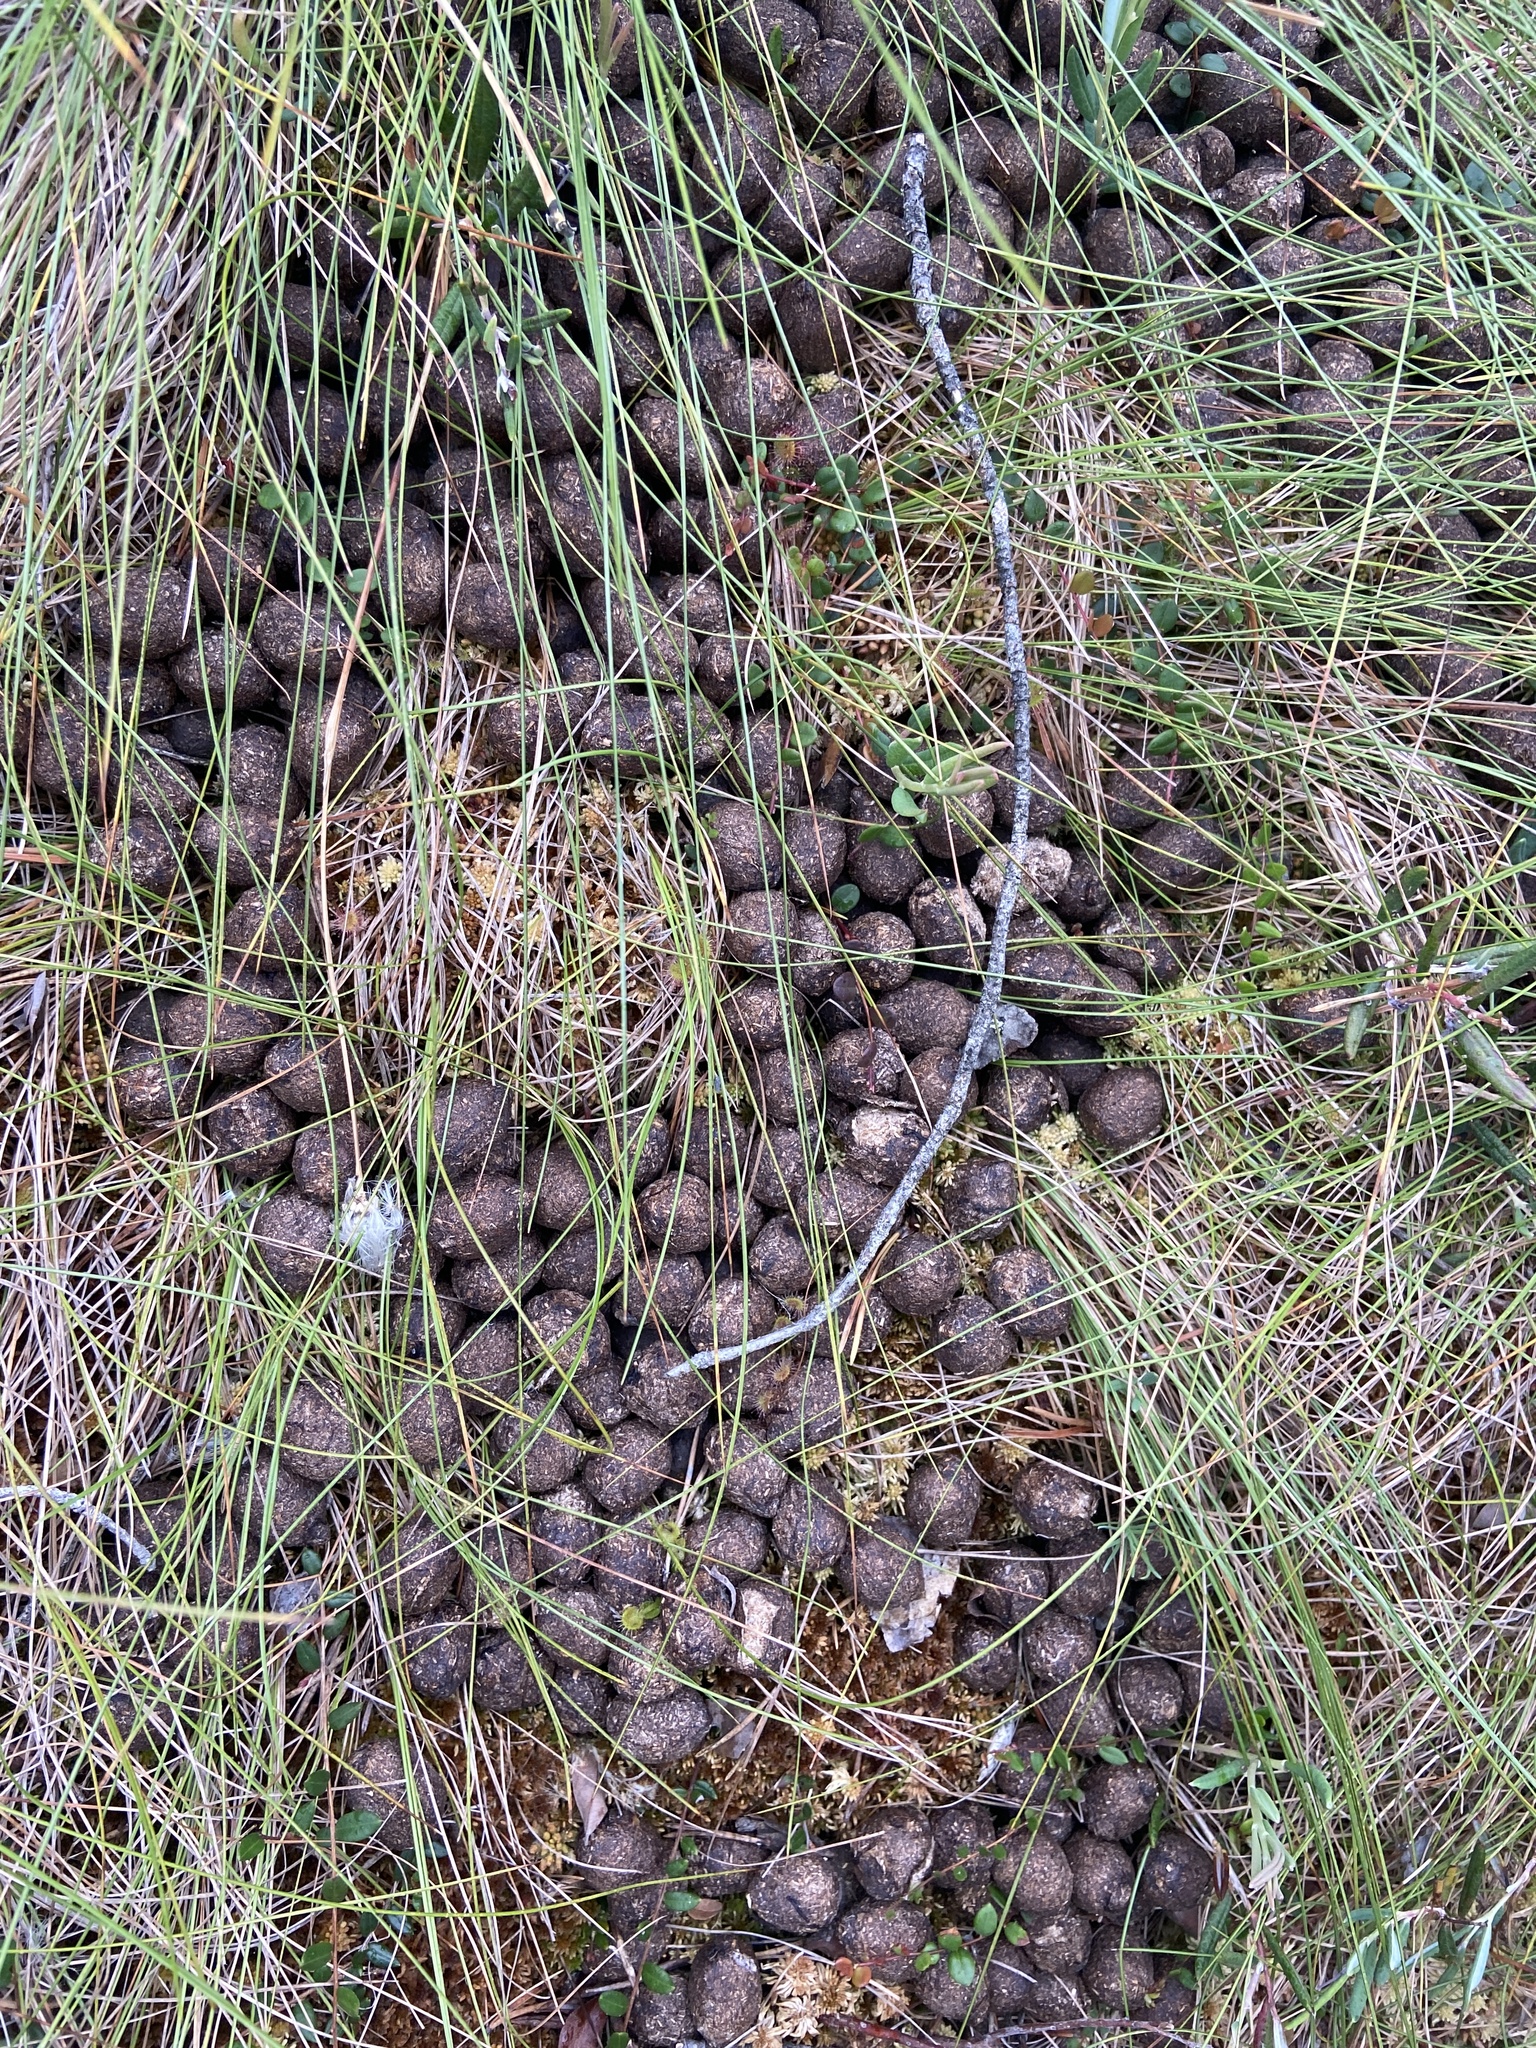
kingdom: Animalia
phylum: Chordata
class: Mammalia
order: Artiodactyla
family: Cervidae
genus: Alces
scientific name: Alces alces
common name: Moose
